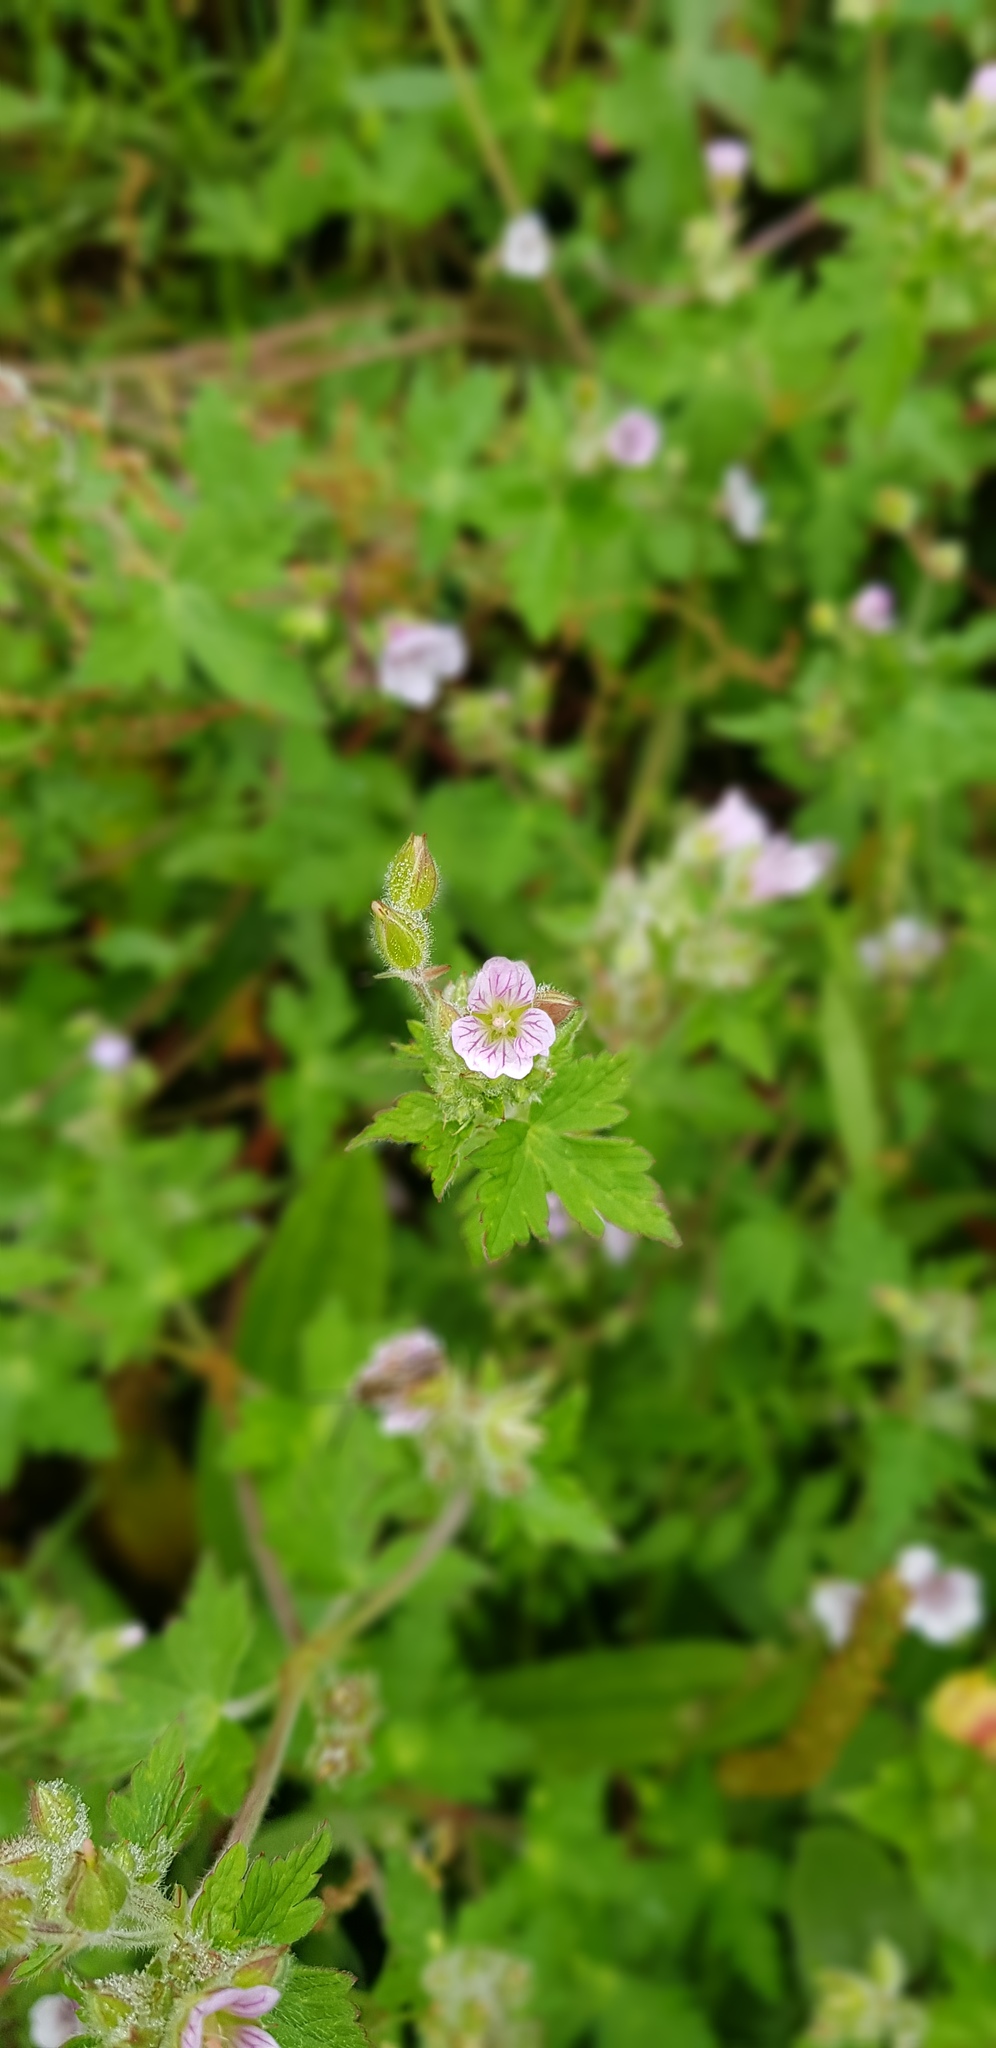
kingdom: Plantae
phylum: Tracheophyta
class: Magnoliopsida
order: Geraniales
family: Geraniaceae
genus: Geranium
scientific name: Geranium seemannii
